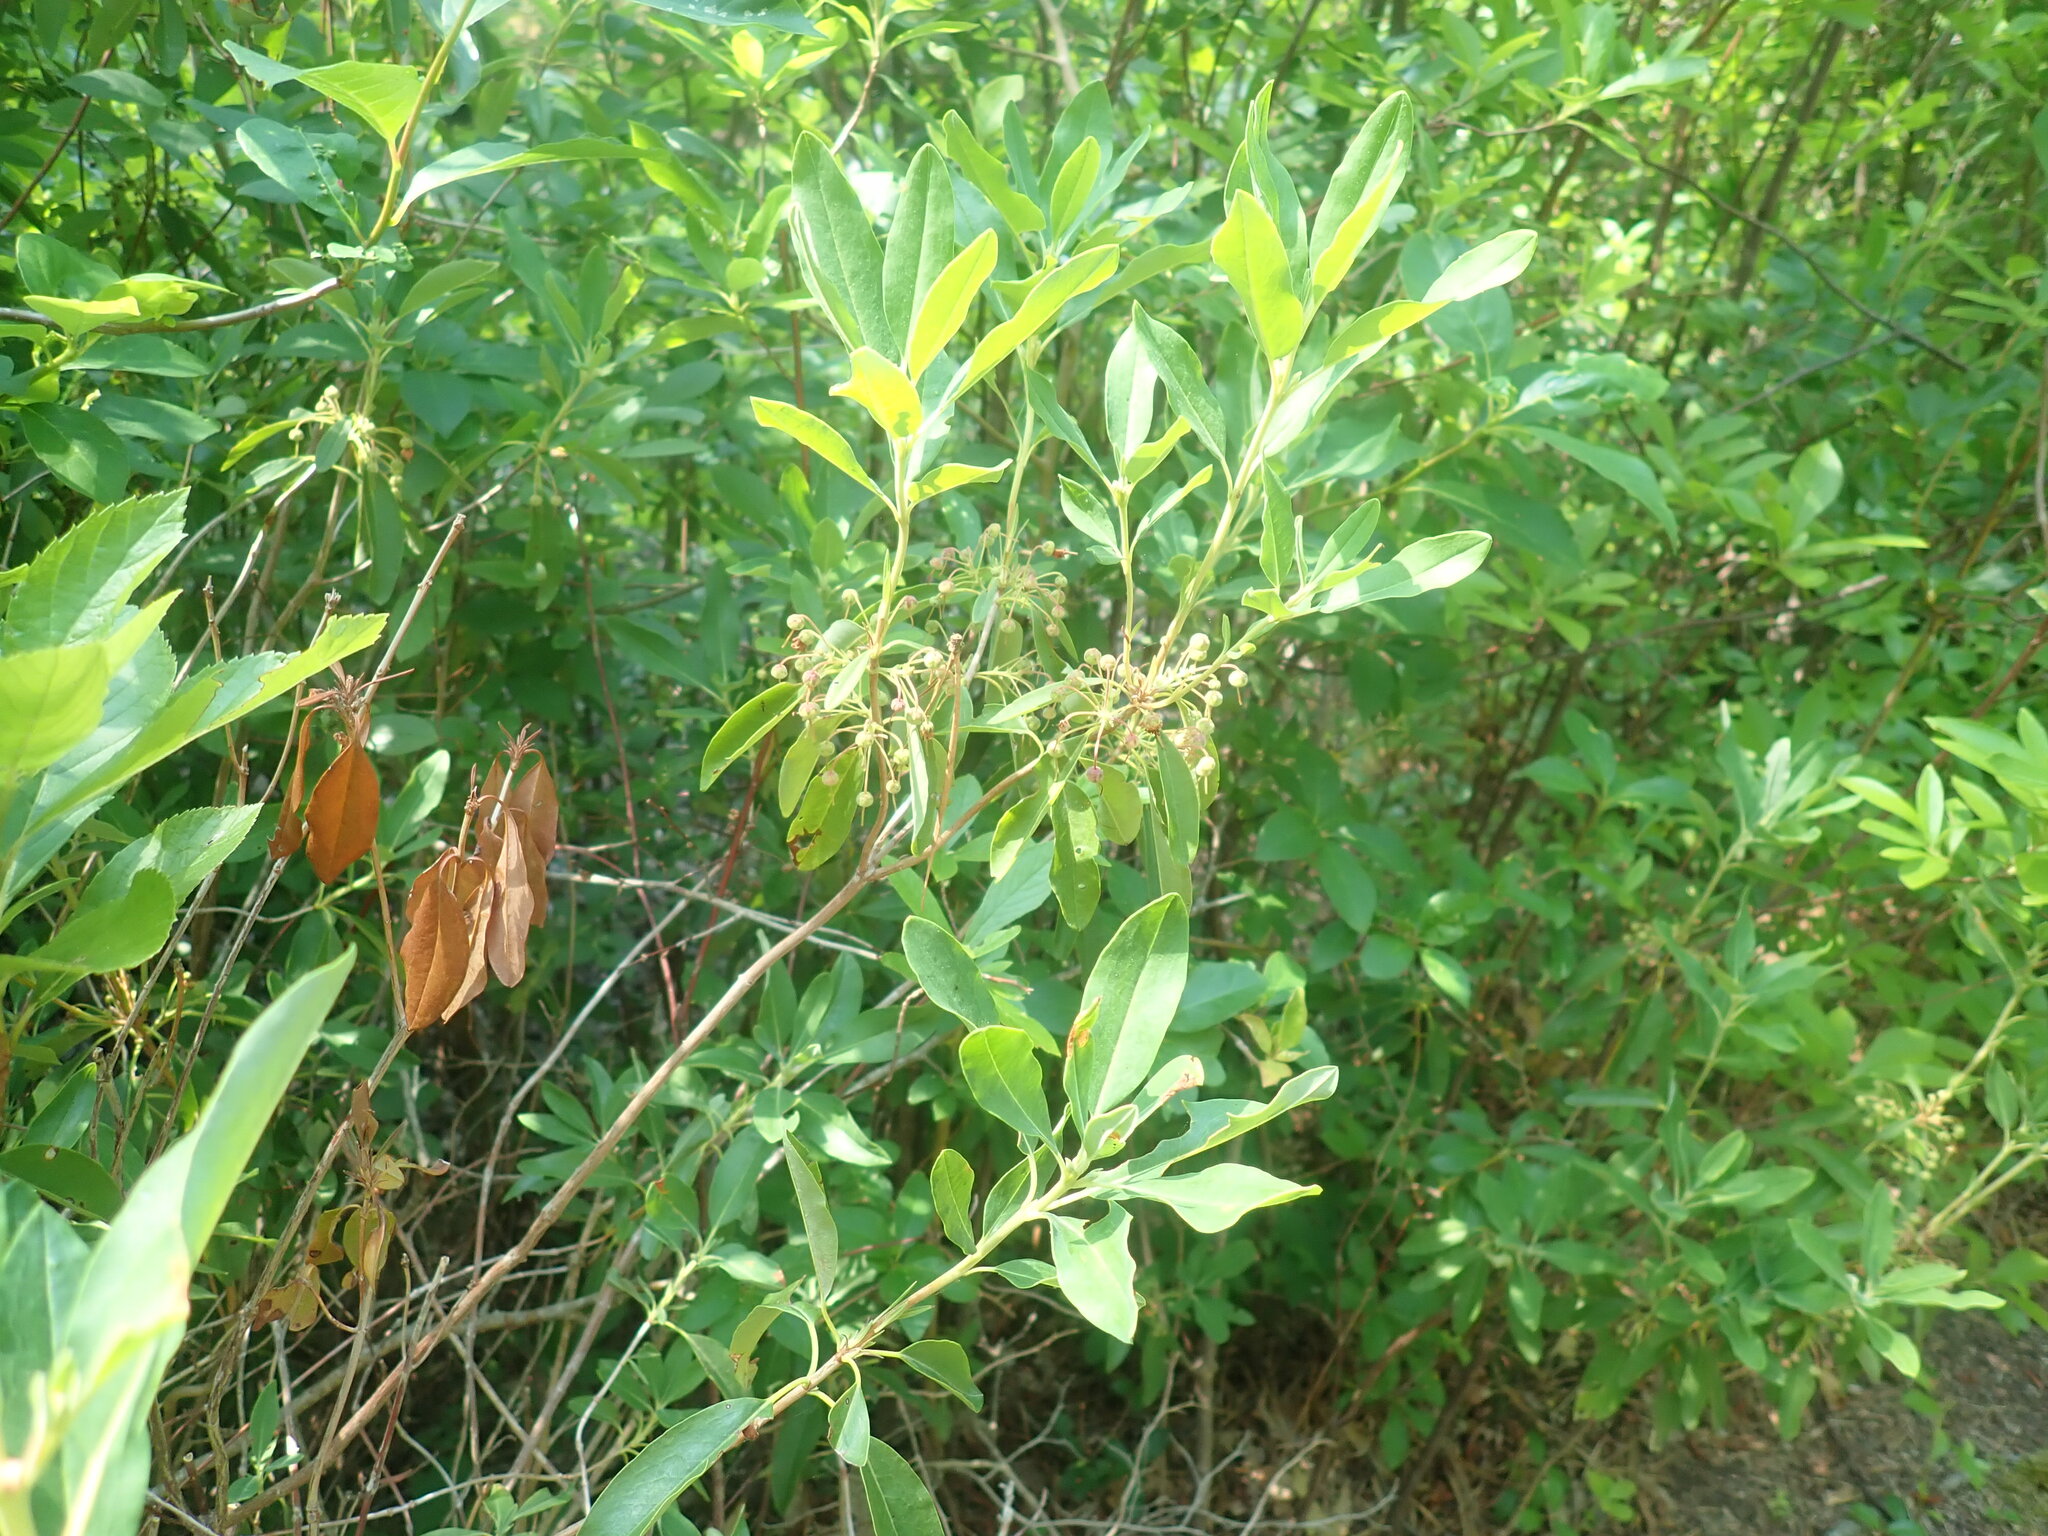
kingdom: Plantae
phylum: Tracheophyta
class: Magnoliopsida
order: Ericales
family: Ericaceae
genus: Kalmia
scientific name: Kalmia angustifolia
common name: Sheep-laurel
